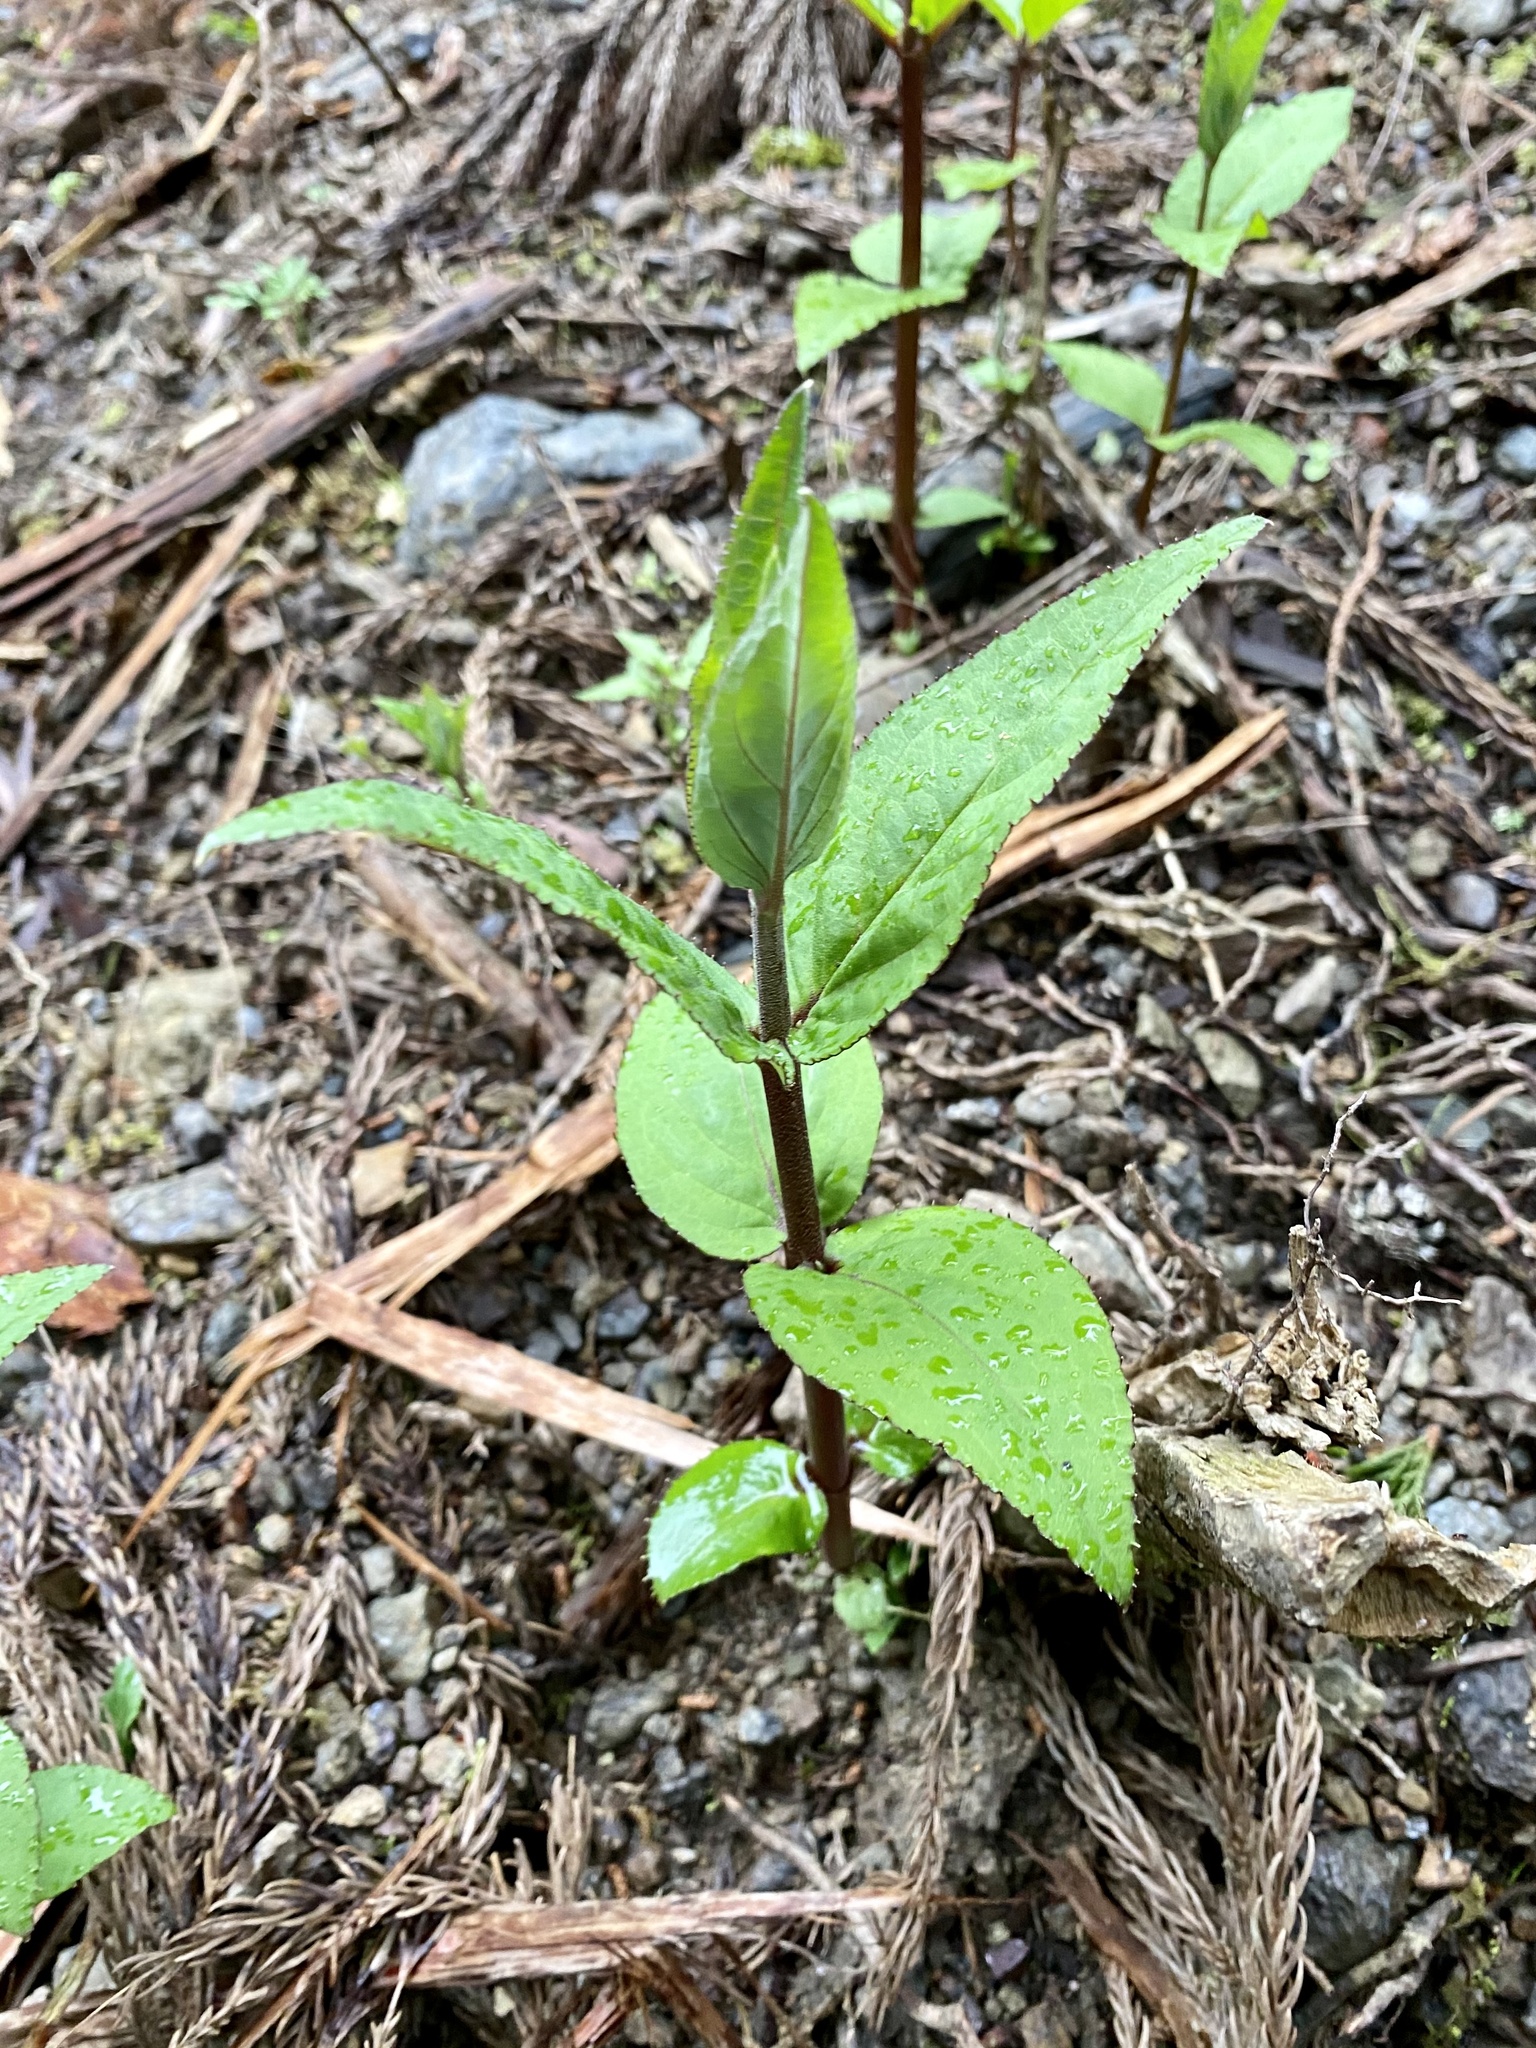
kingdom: Plantae
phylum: Tracheophyta
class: Magnoliopsida
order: Cornales
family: Hydrangeaceae
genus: Deutzia
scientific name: Deutzia crenata
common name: Deutzia
